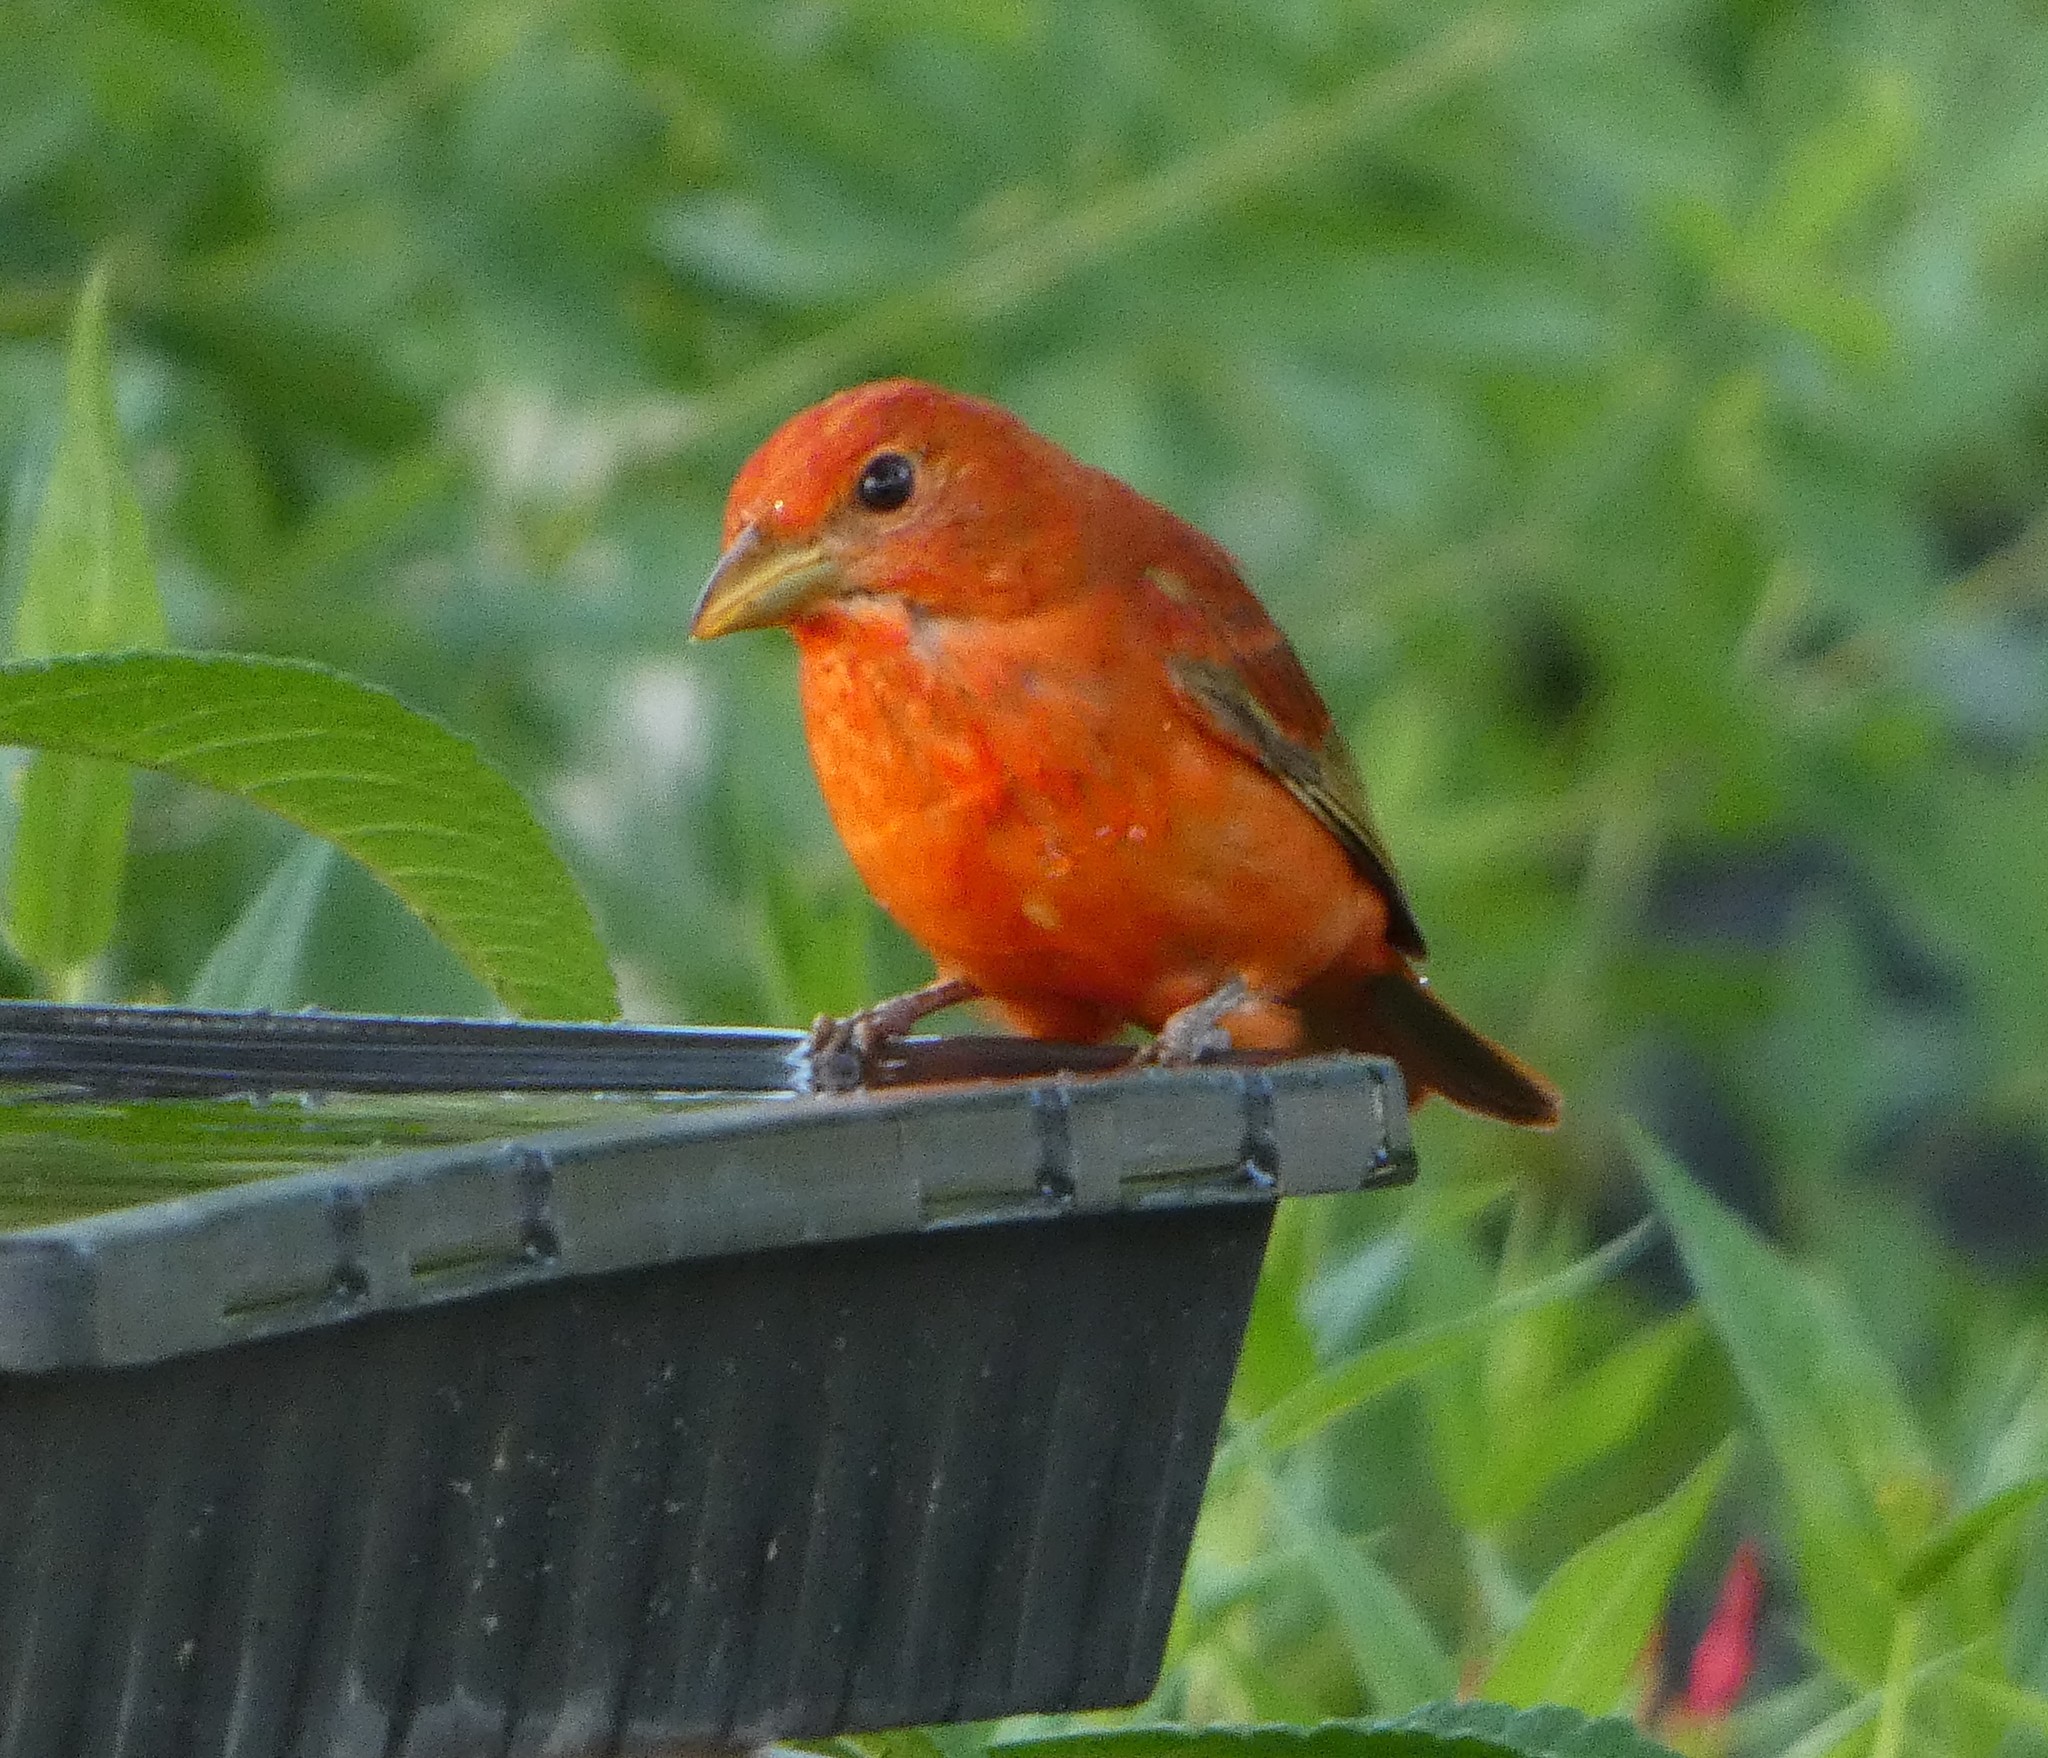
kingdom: Animalia
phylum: Chordata
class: Aves
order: Passeriformes
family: Cardinalidae
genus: Piranga
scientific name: Piranga rubra
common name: Summer tanager
